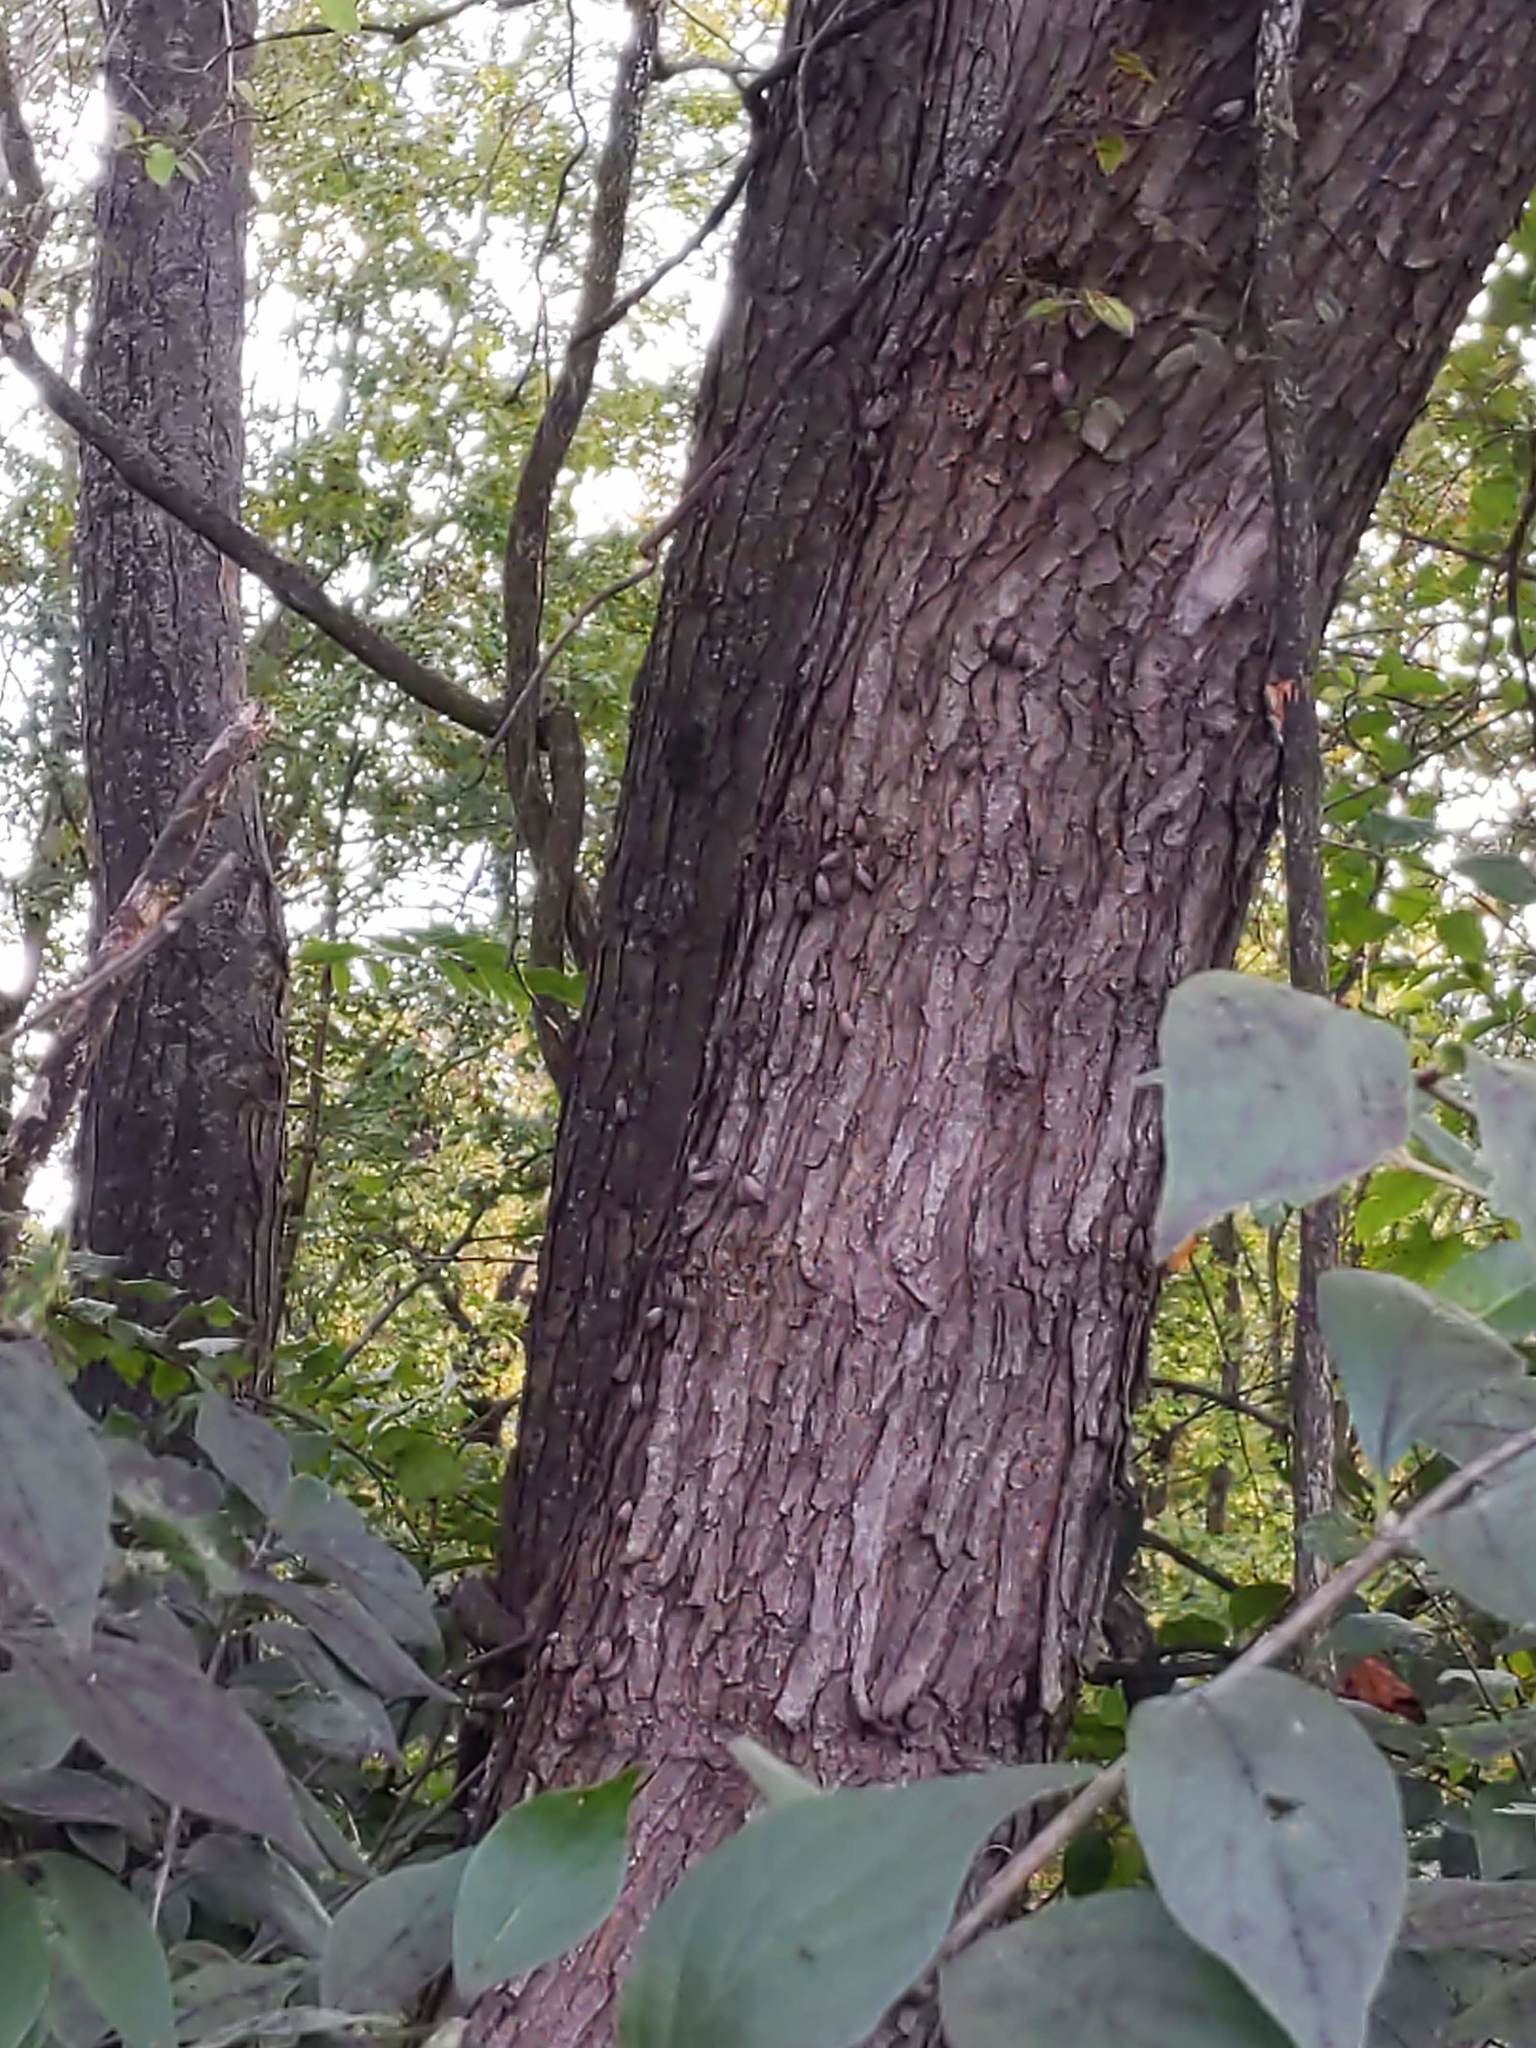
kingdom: Animalia
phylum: Arthropoda
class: Insecta
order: Hemiptera
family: Fulgoridae
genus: Lycorma
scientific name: Lycorma delicatula
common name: Spotted lanternfly
